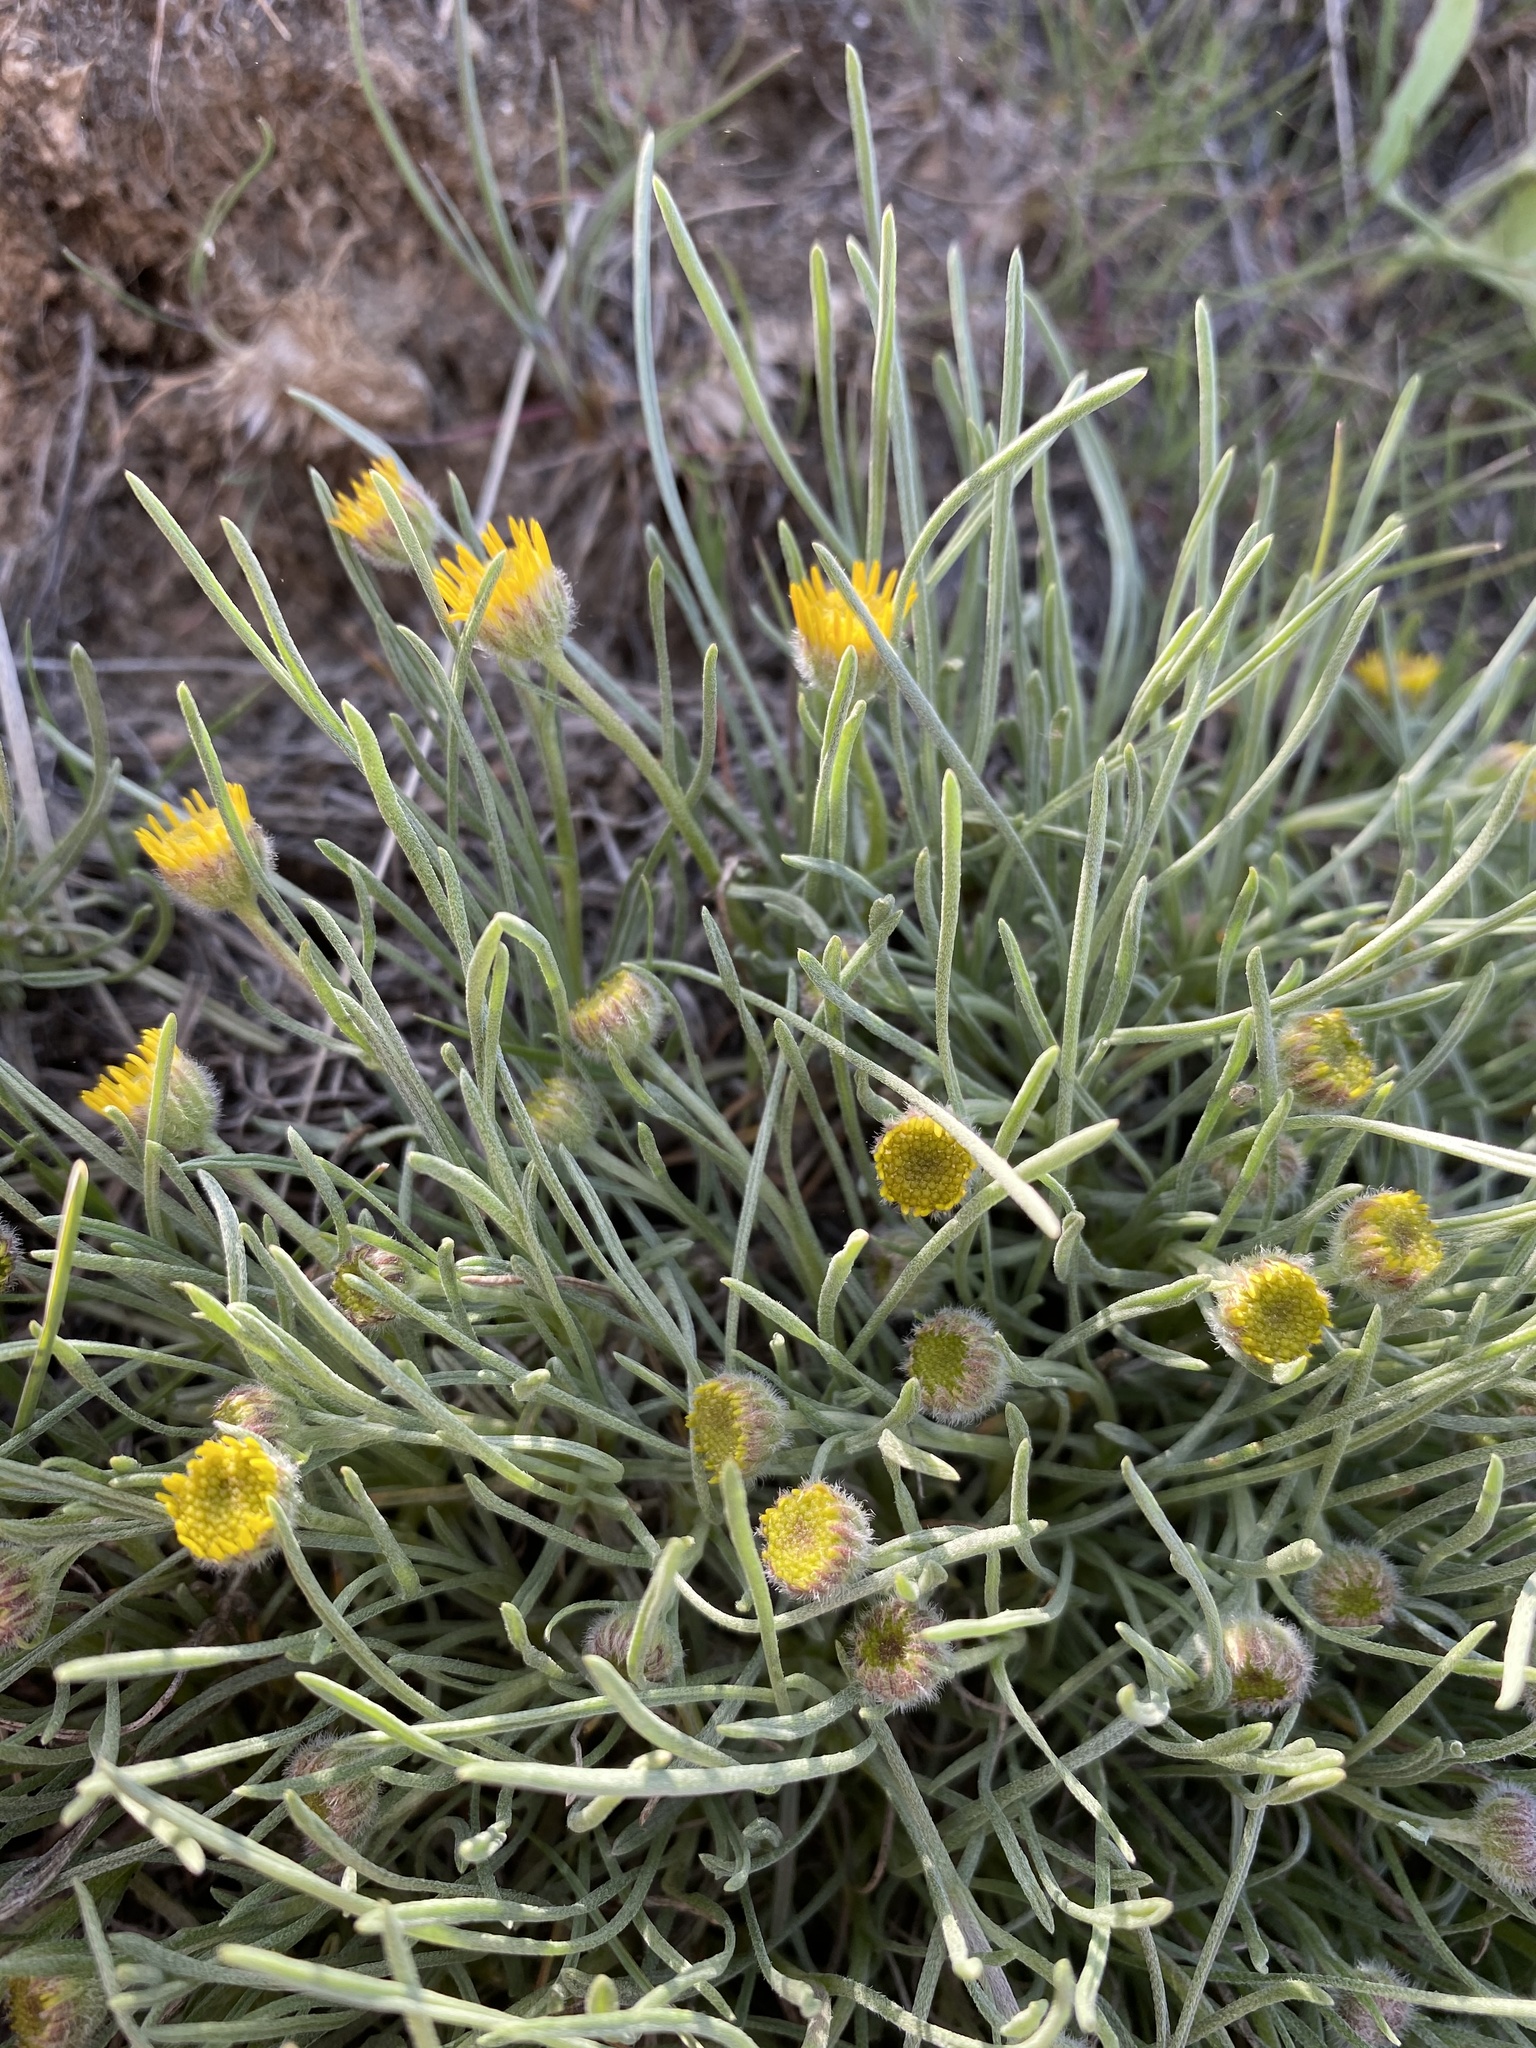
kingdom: Plantae
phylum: Tracheophyta
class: Magnoliopsida
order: Asterales
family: Asteraceae
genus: Erigeron
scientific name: Erigeron linearis
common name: Desert yellow fleabane
